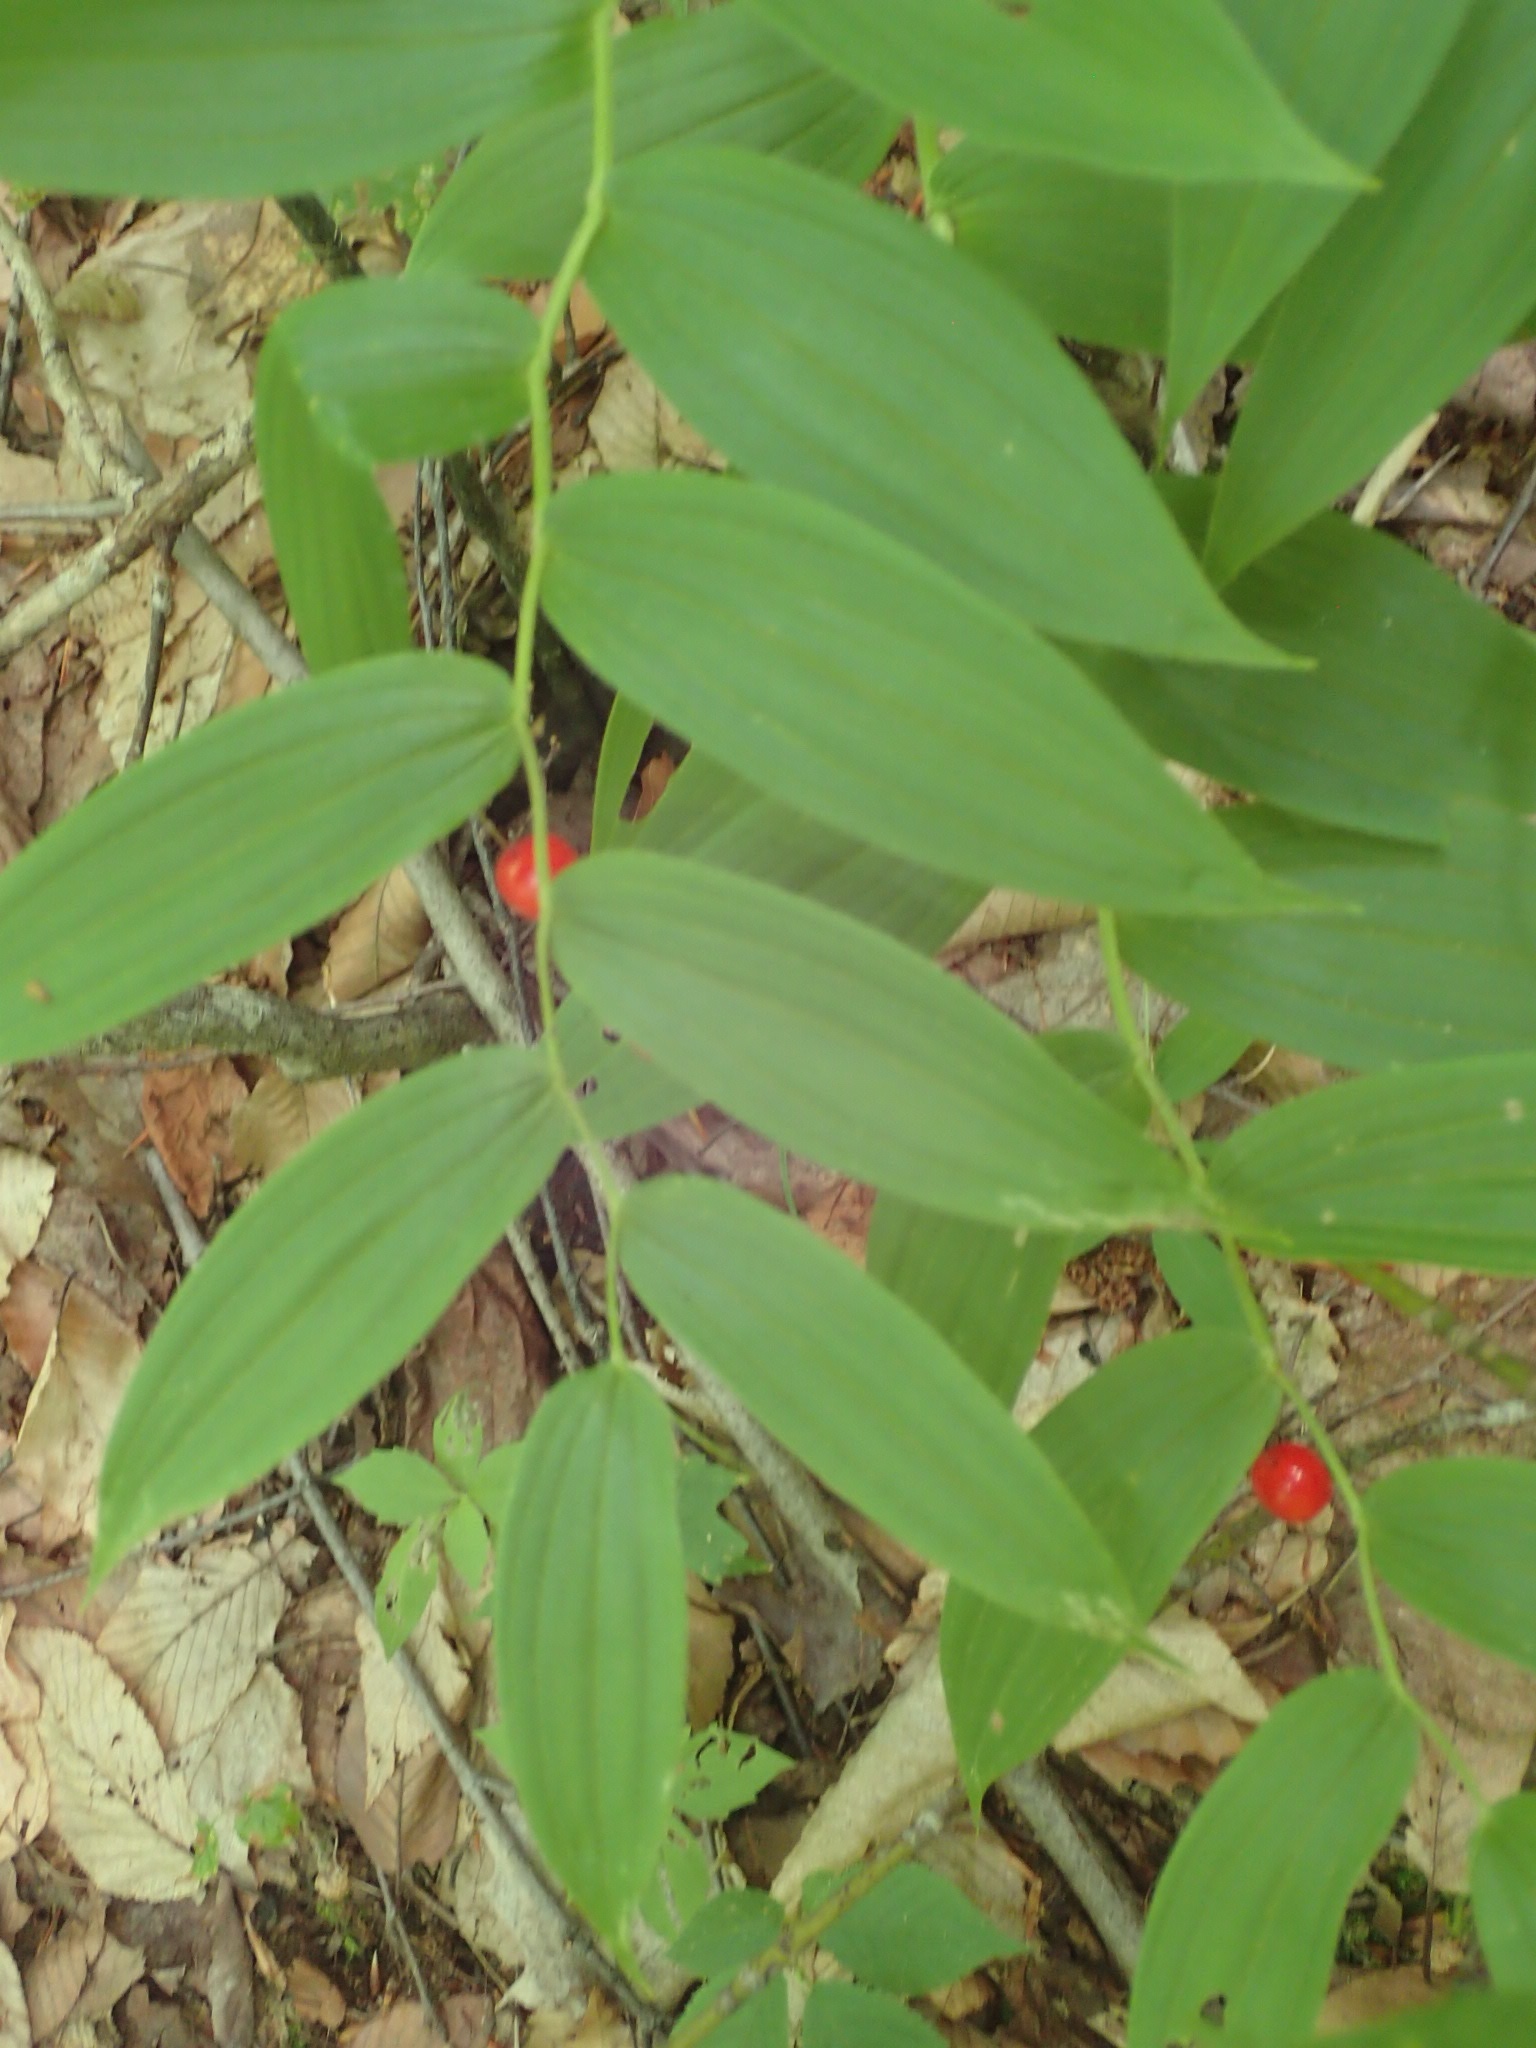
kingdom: Plantae
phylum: Tracheophyta
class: Liliopsida
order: Liliales
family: Liliaceae
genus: Streptopus
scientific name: Streptopus lanceolatus
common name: Rose mandarin
